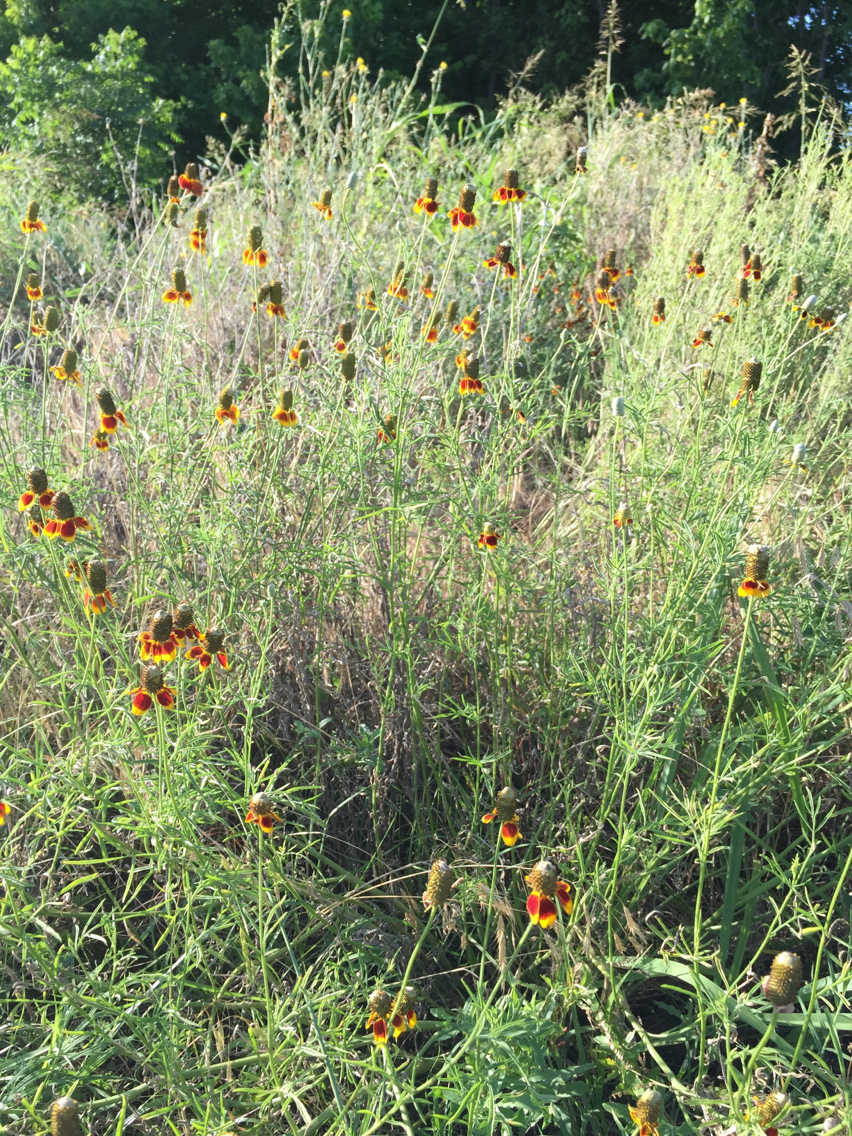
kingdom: Plantae
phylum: Tracheophyta
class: Magnoliopsida
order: Asterales
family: Asteraceae
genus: Ratibida
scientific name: Ratibida columnifera
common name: Prairie coneflower
